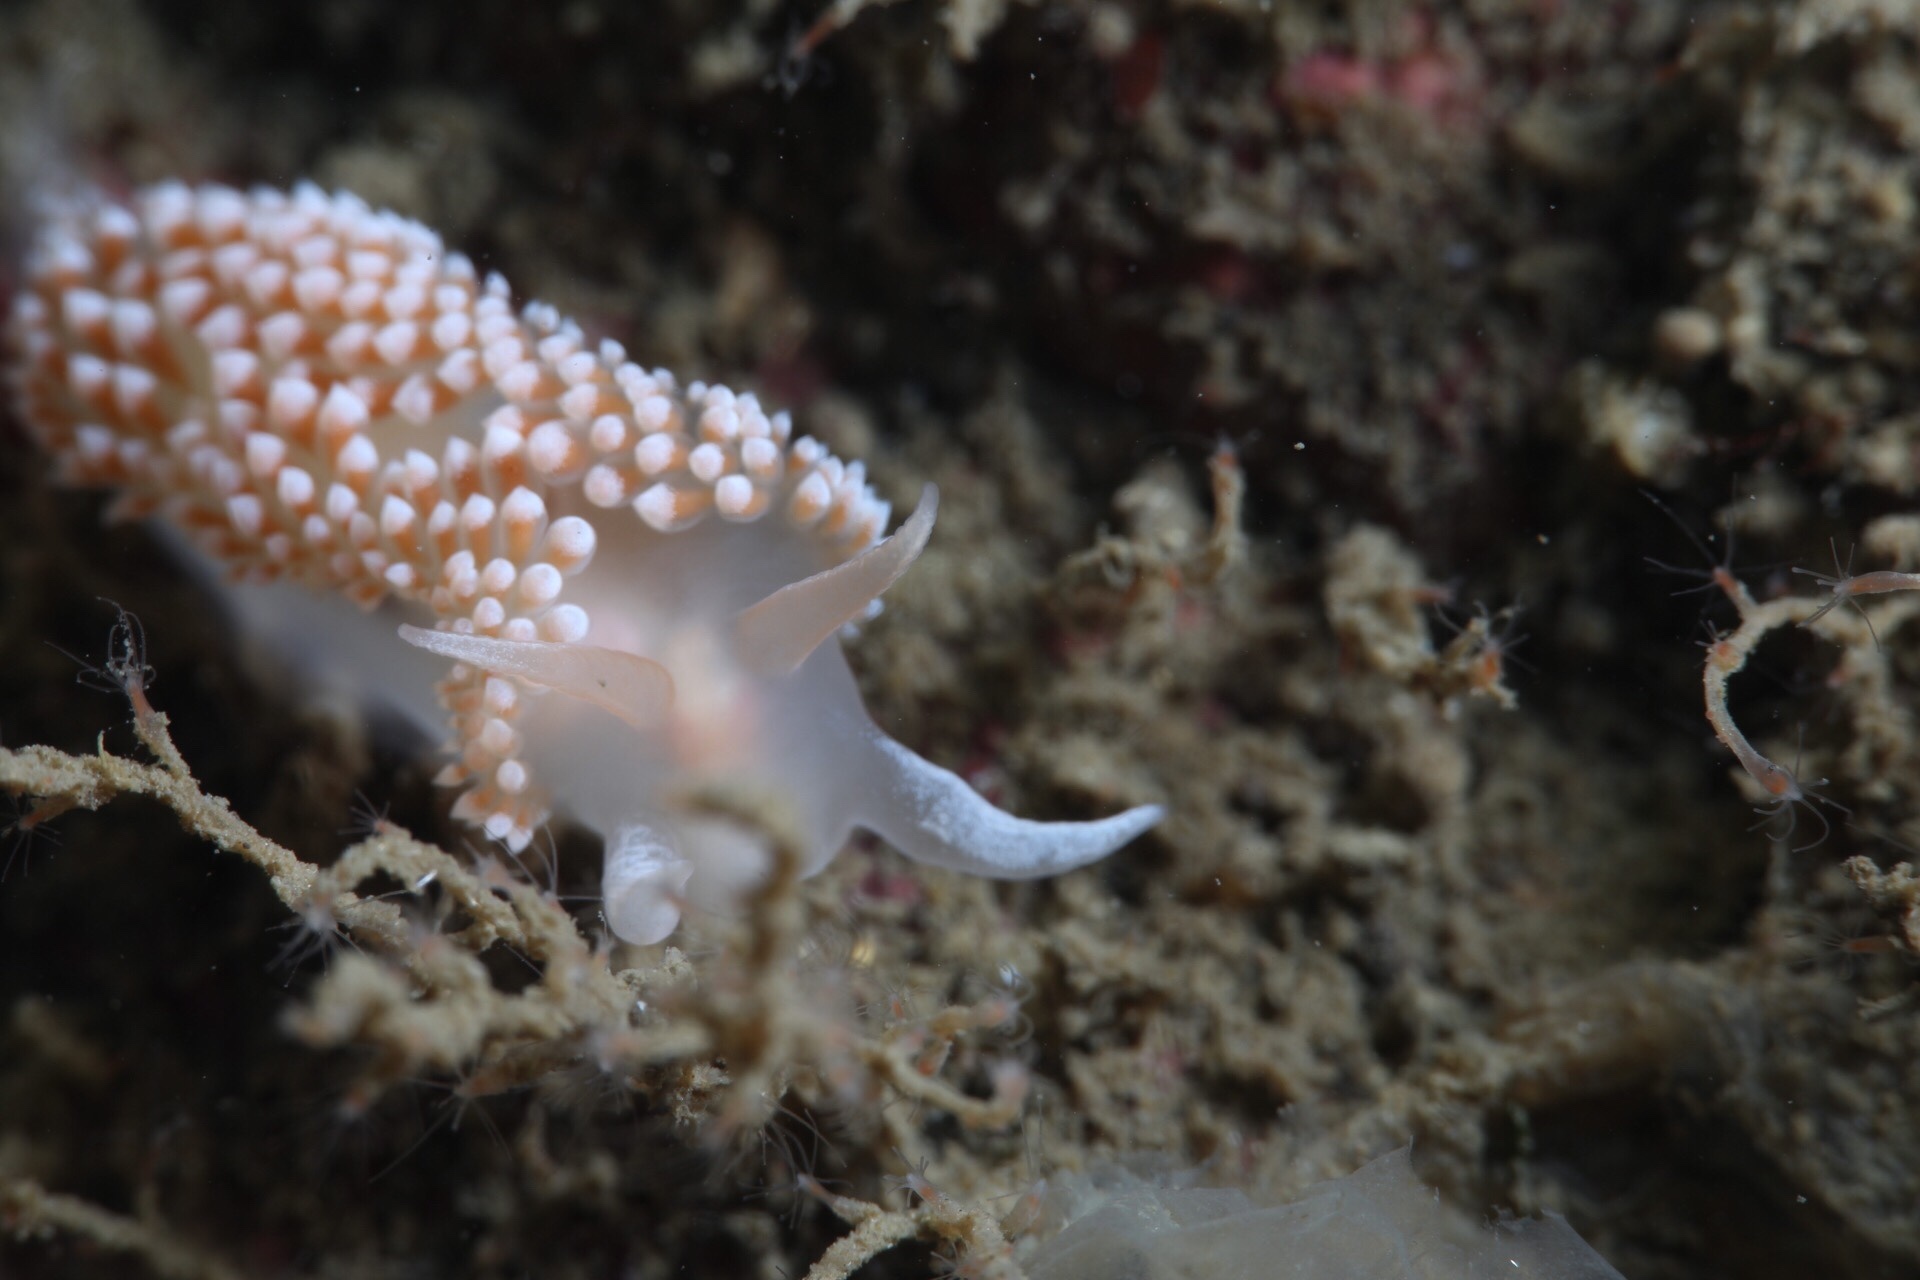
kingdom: Animalia
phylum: Mollusca
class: Gastropoda
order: Nudibranchia
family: Coryphellidae
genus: Coryphella
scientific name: Coryphella verrucosa
